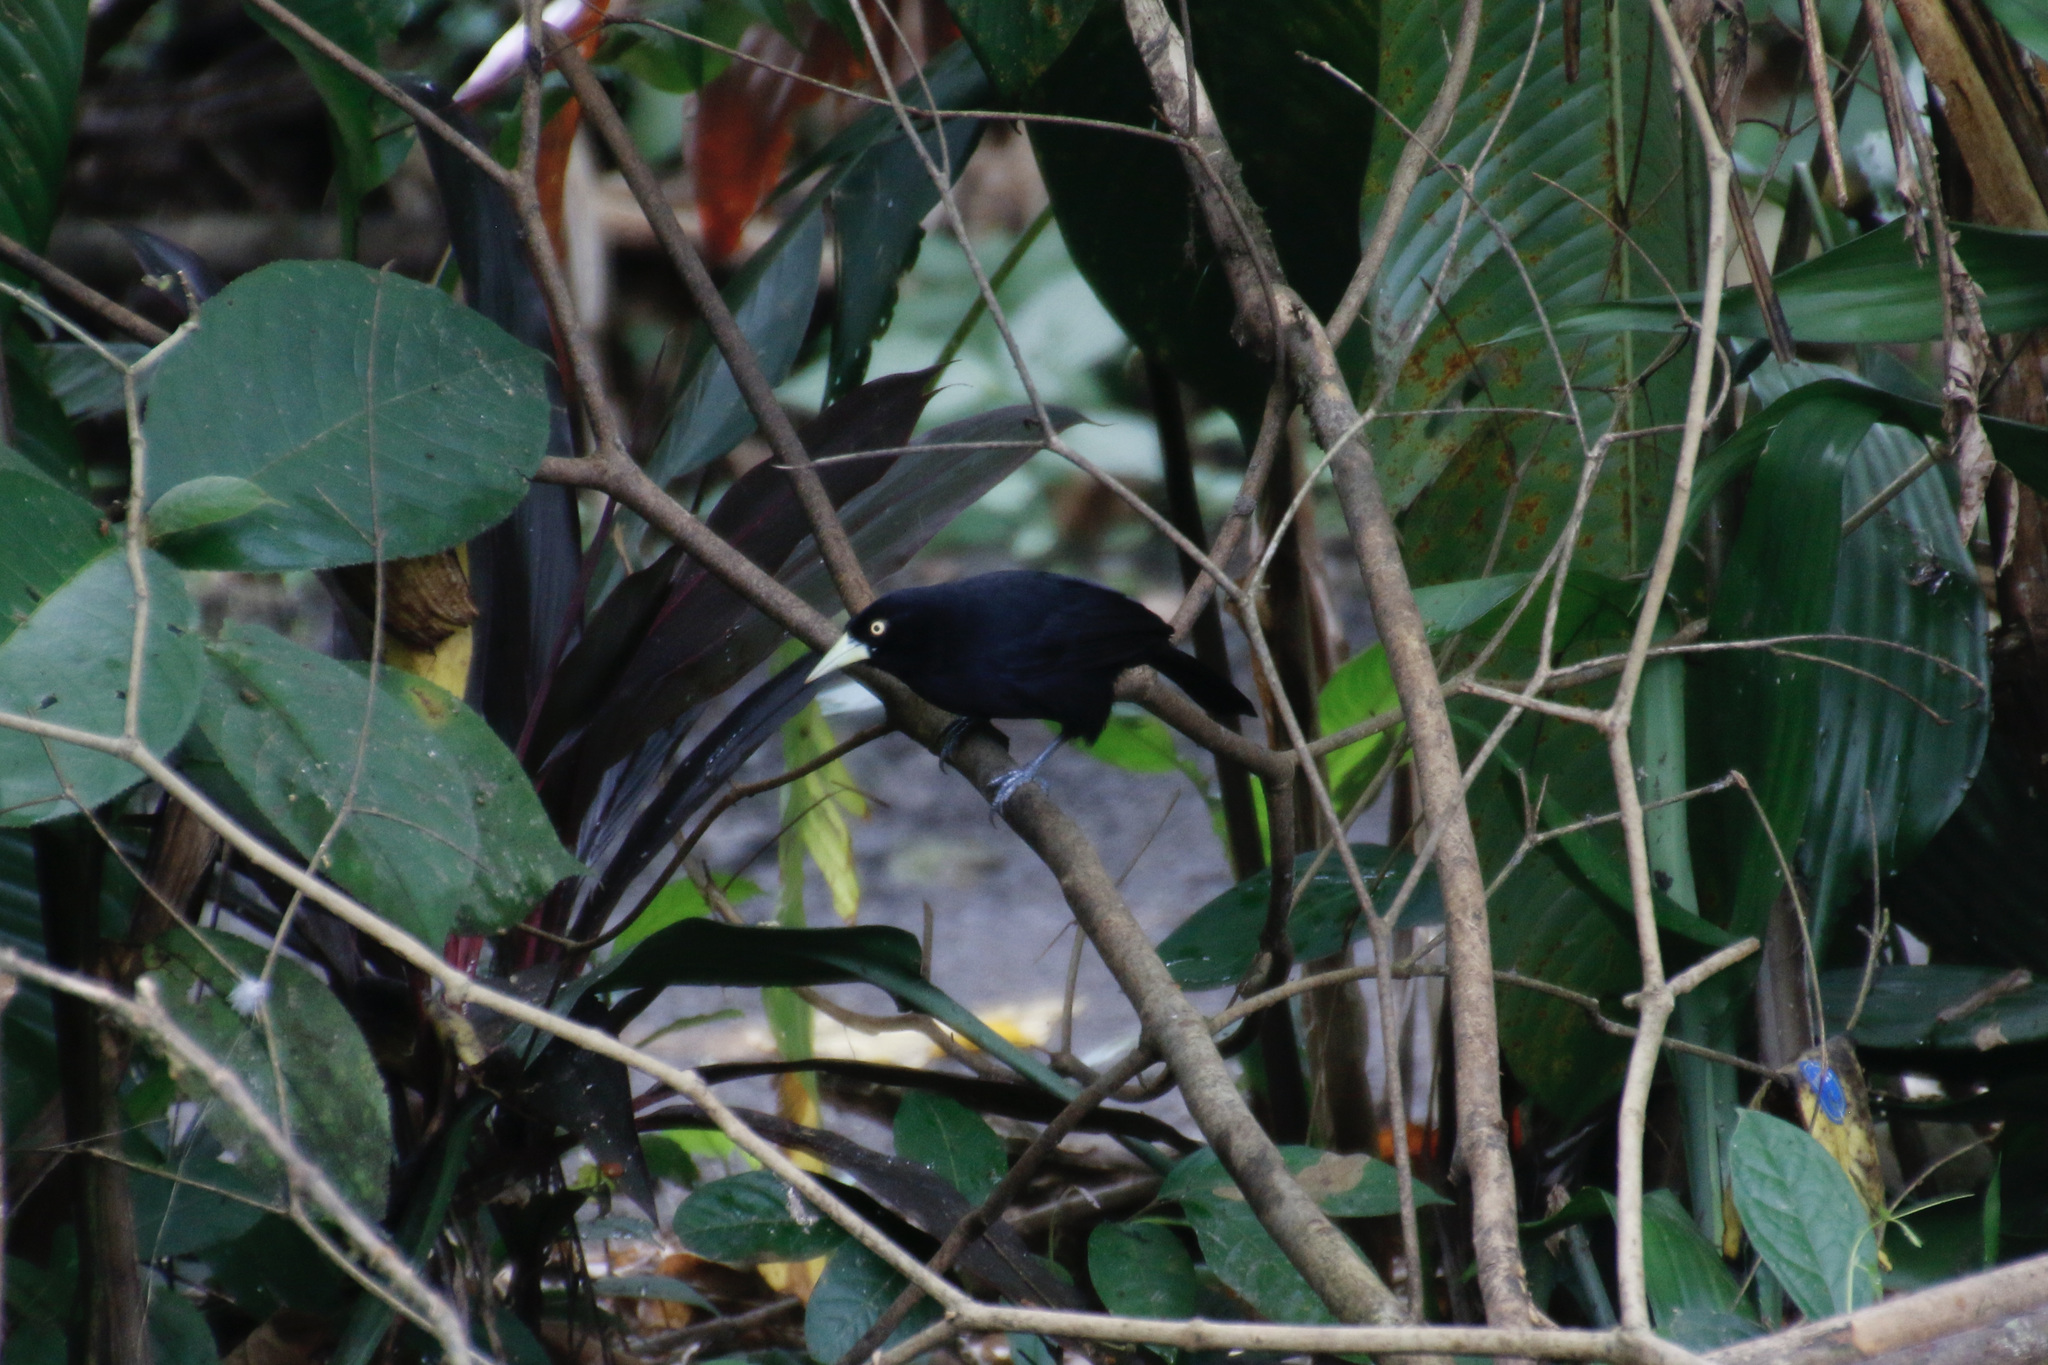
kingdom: Animalia
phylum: Chordata
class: Aves
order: Passeriformes
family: Icteridae
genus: Amblycercus
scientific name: Amblycercus holosericeus
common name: Yellow-billed cacique
